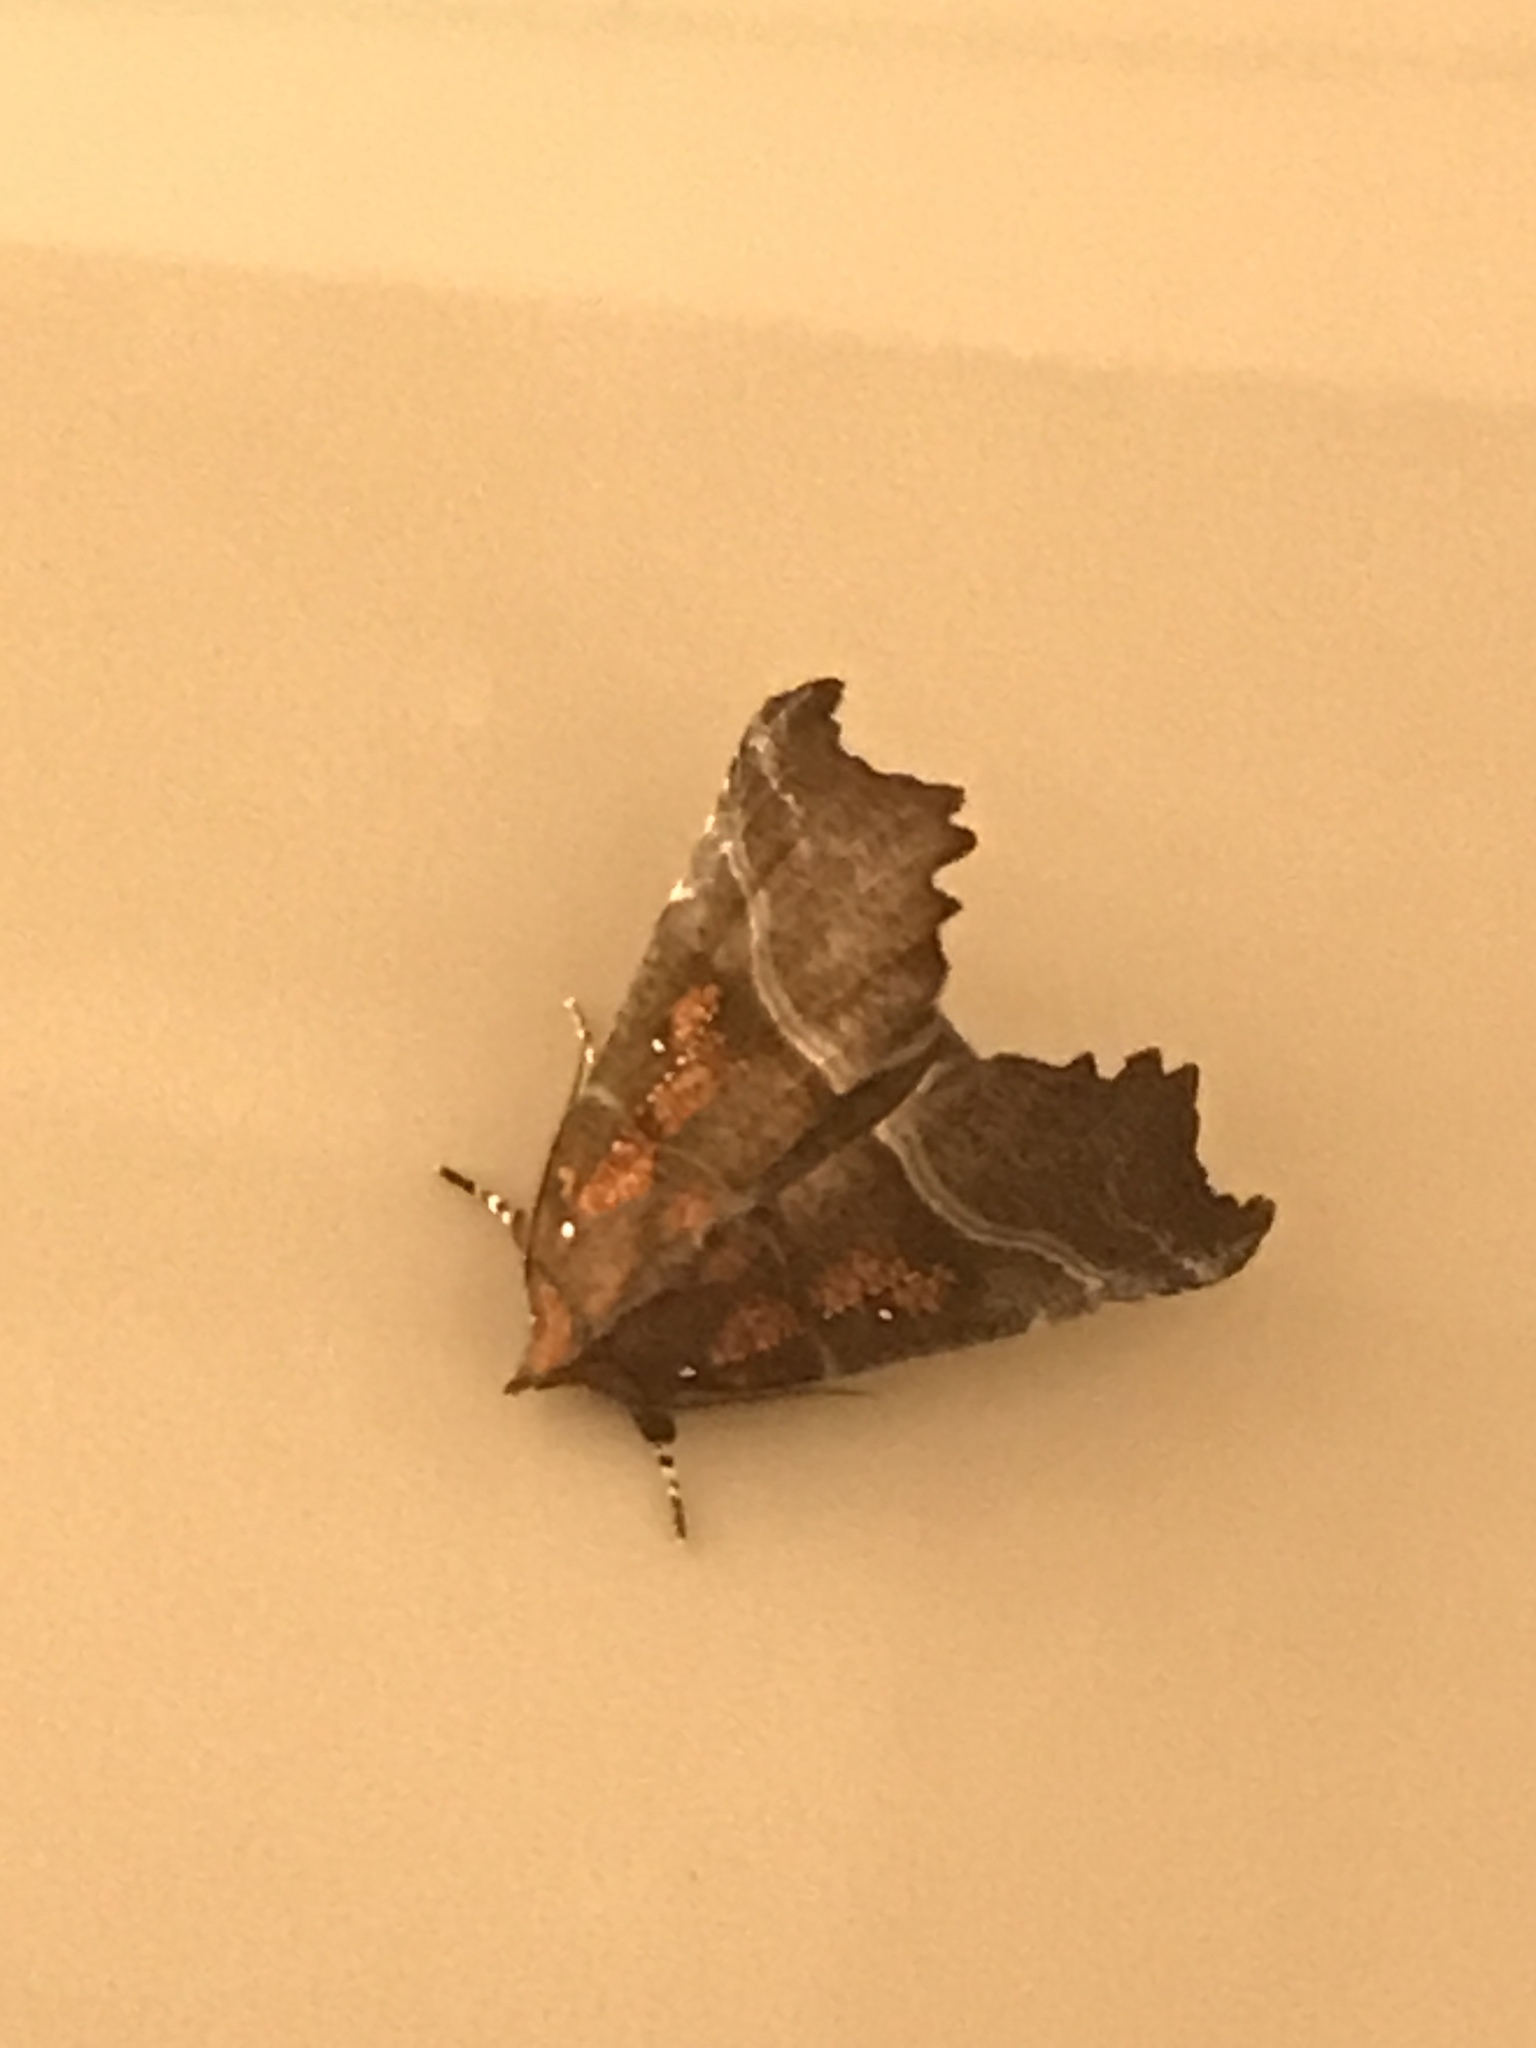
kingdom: Animalia
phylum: Arthropoda
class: Insecta
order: Lepidoptera
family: Erebidae
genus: Scoliopteryx
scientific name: Scoliopteryx libatrix
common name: Herald
